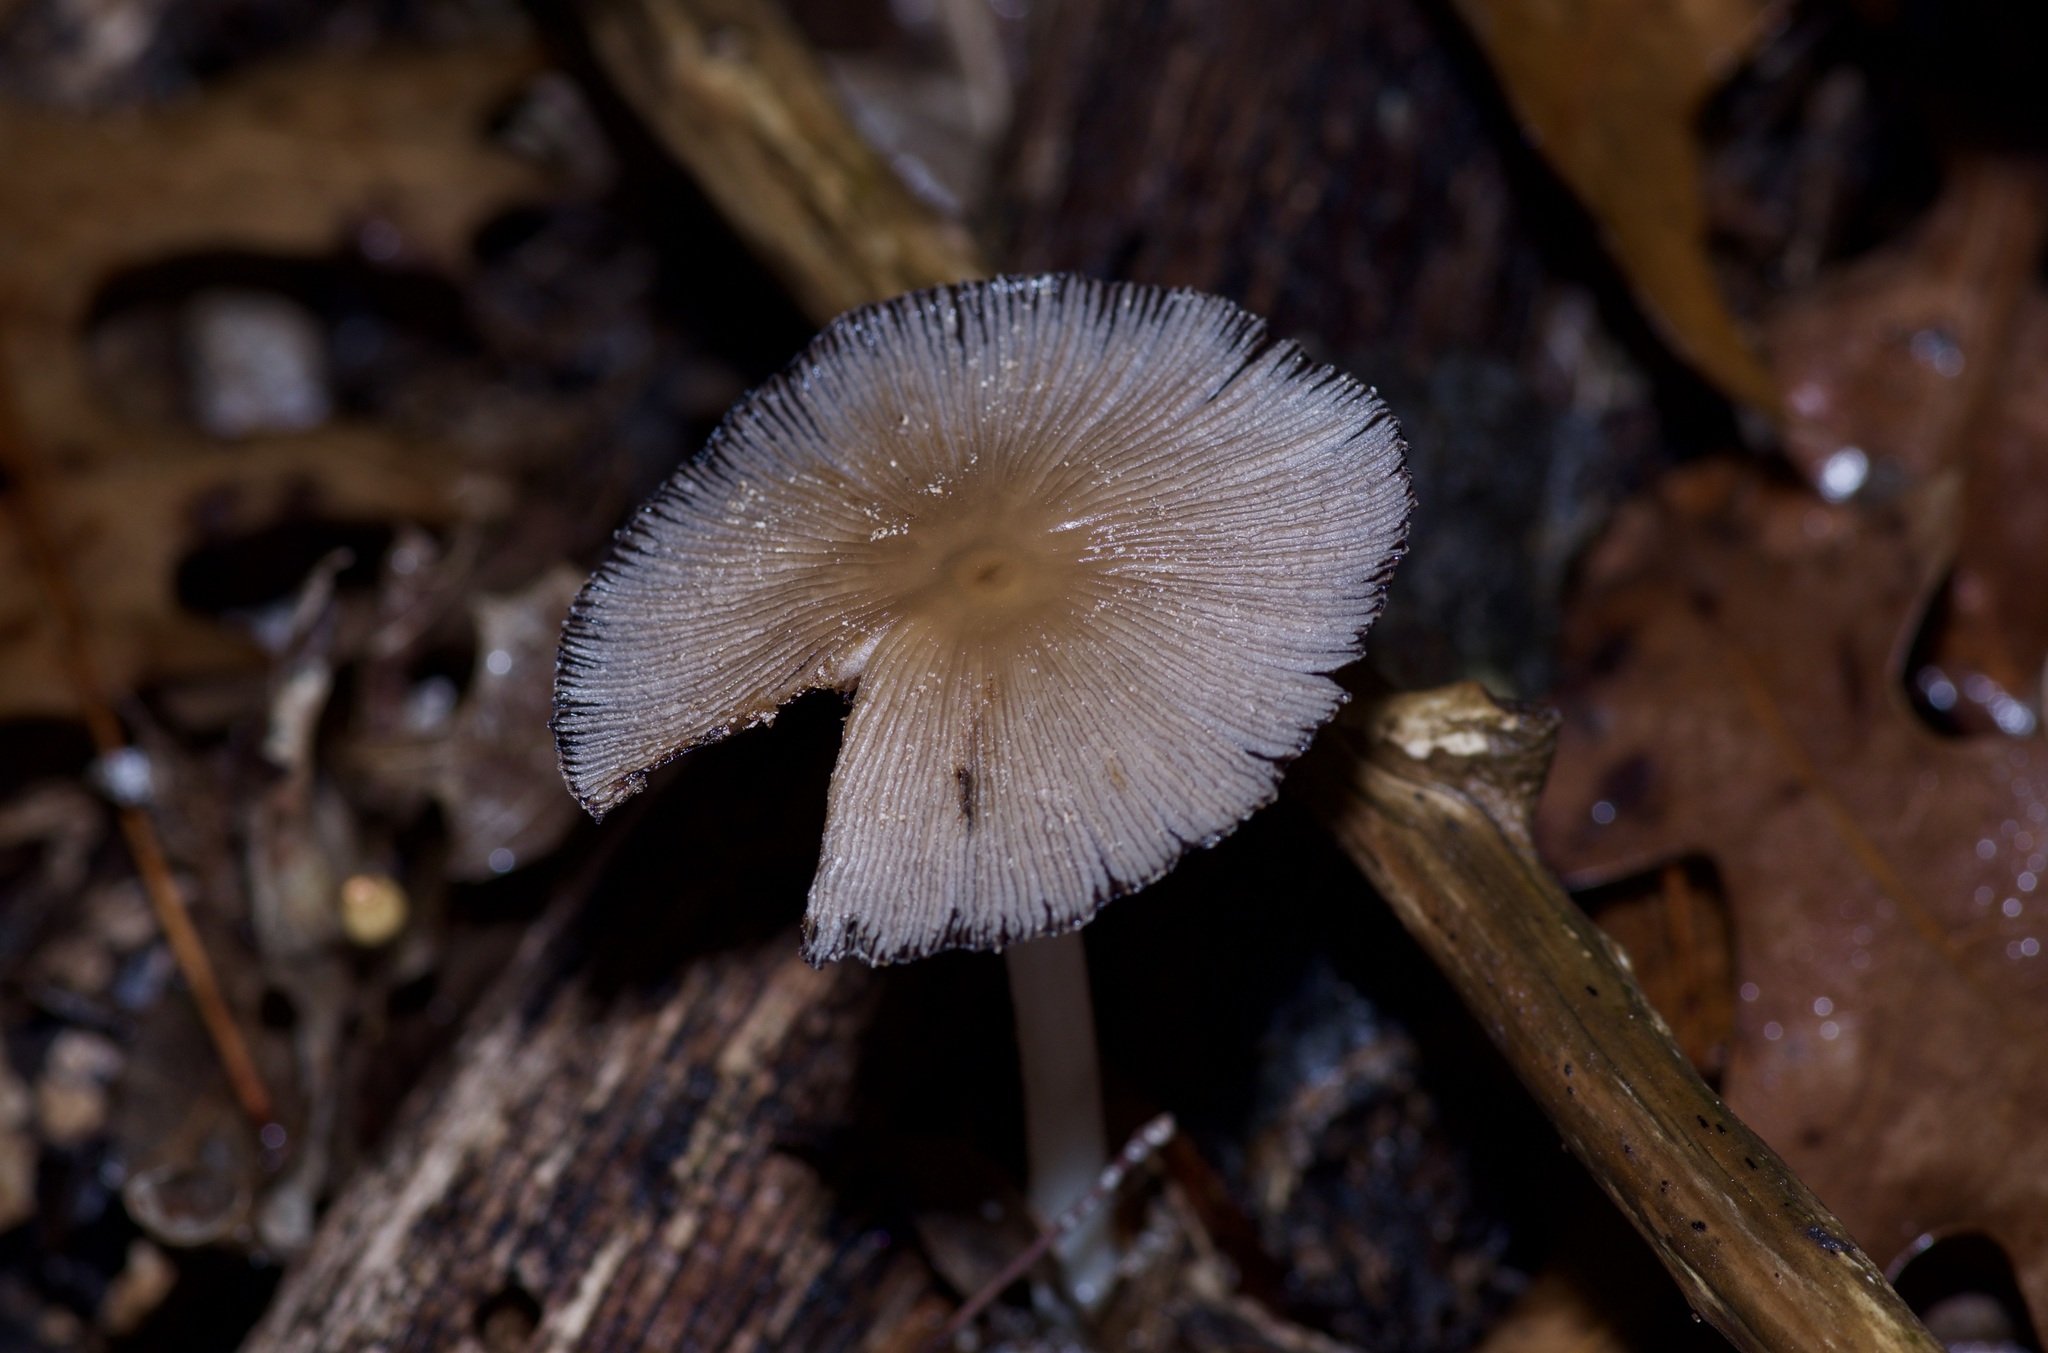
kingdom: Fungi
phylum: Basidiomycota
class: Agaricomycetes
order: Agaricales
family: Psathyrellaceae
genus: Parasola
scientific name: Parasola plicatilis
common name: Pleated inkcap
